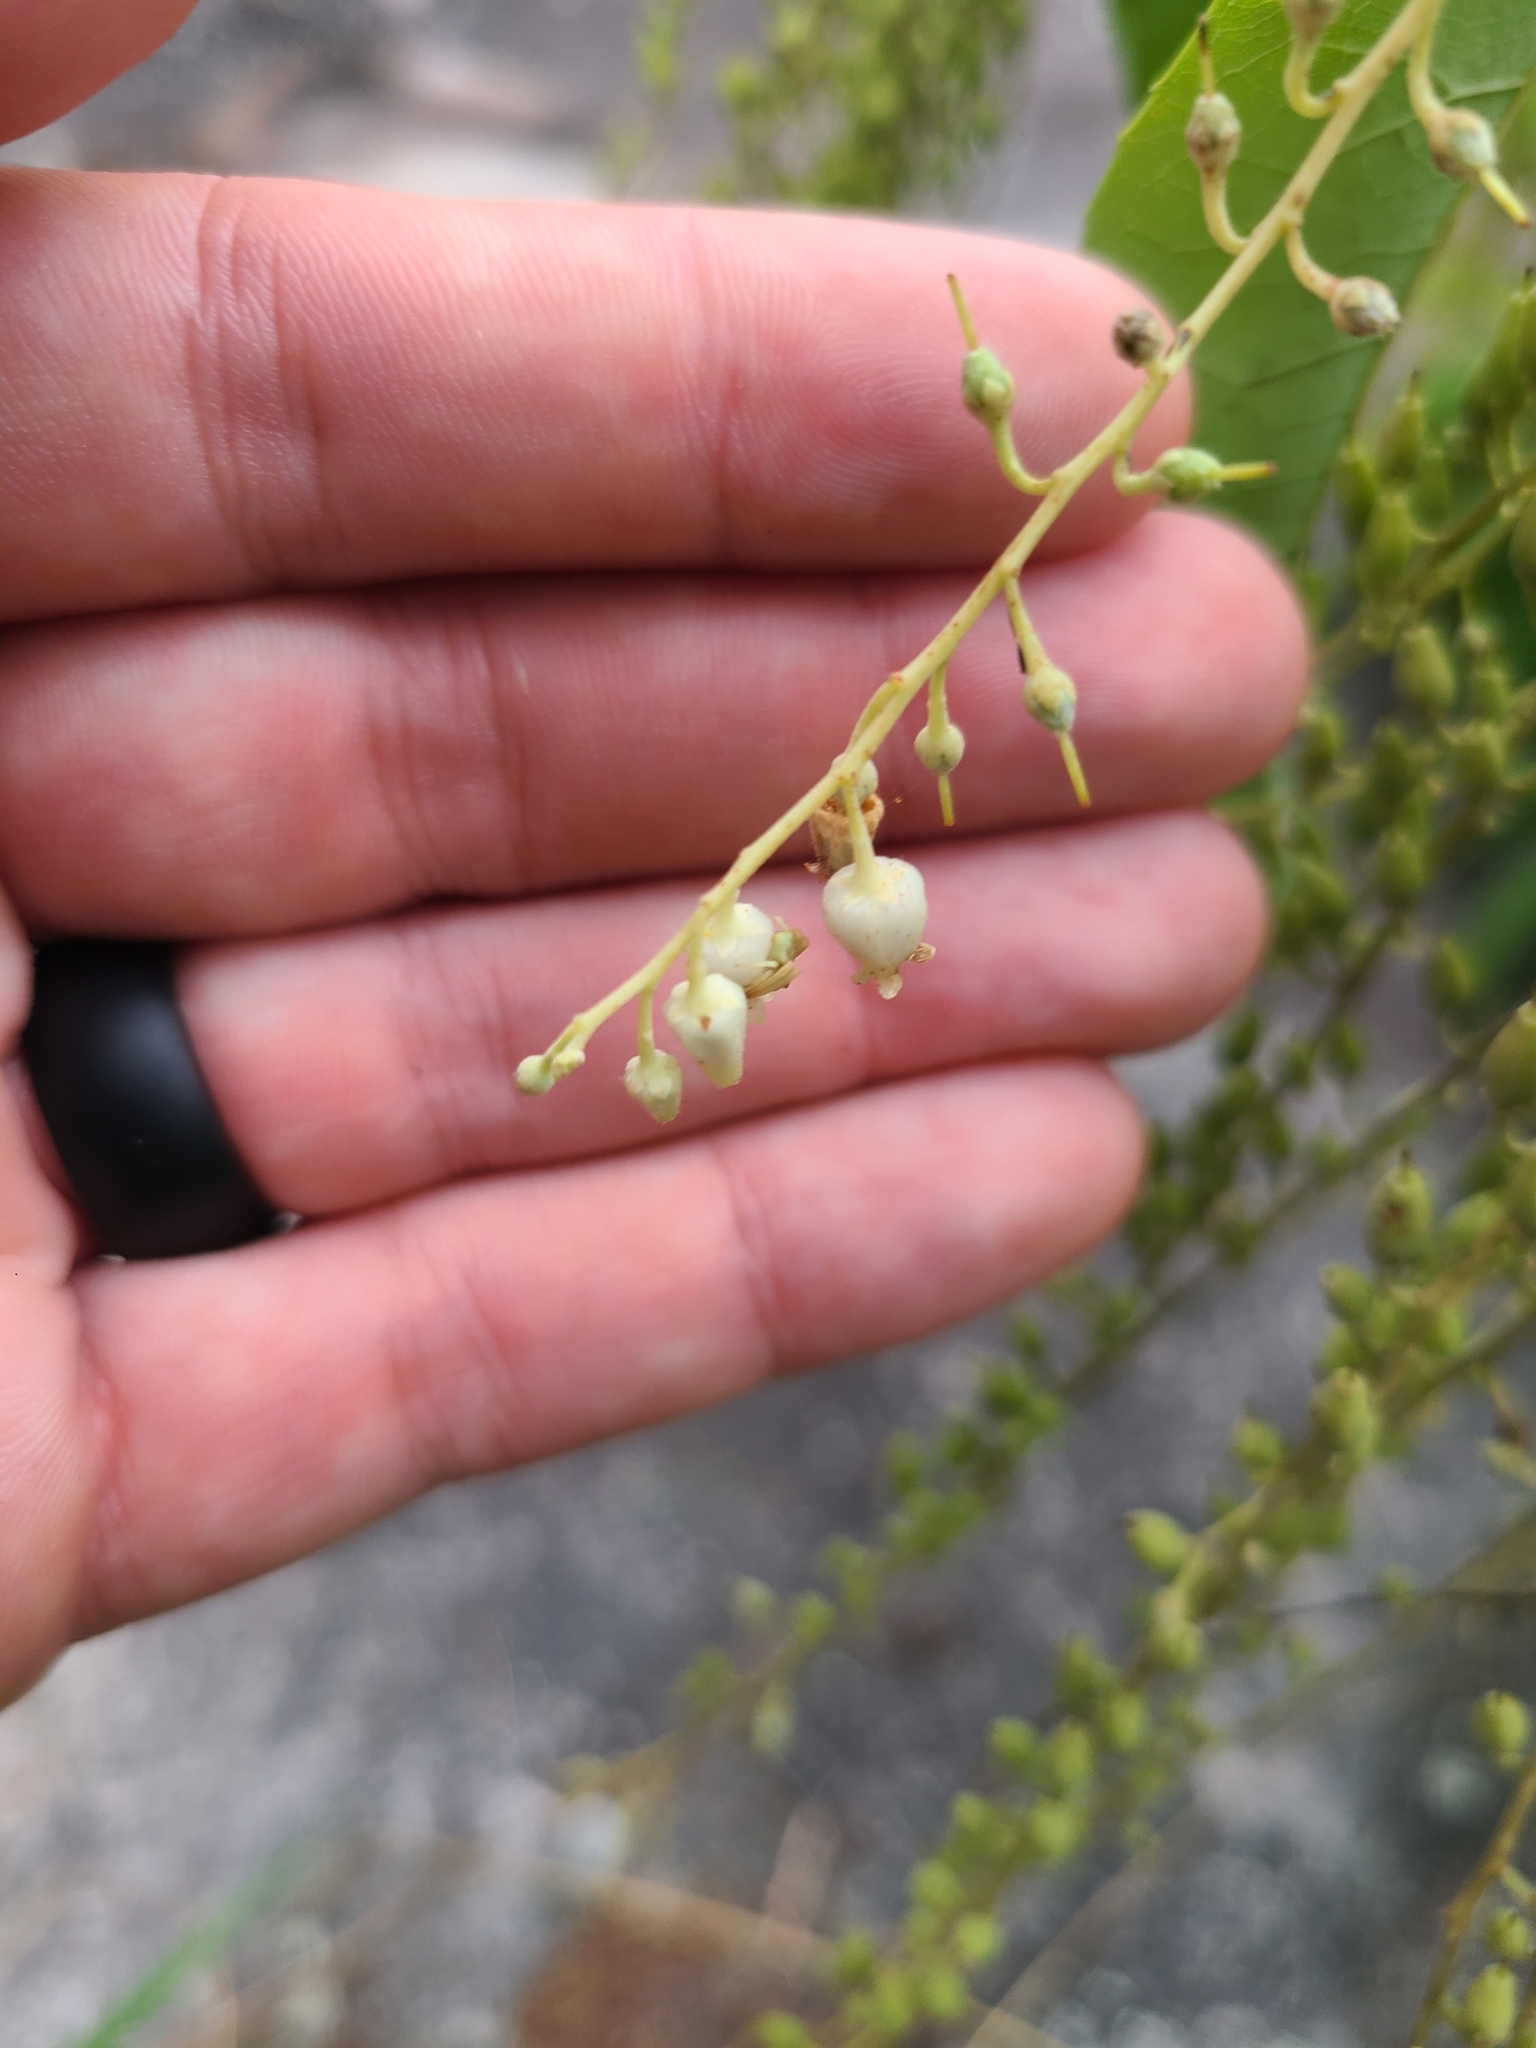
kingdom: Plantae
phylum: Tracheophyta
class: Magnoliopsida
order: Ericales
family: Ericaceae
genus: Oxydendrum
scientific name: Oxydendrum arboreum
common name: Sourwood
